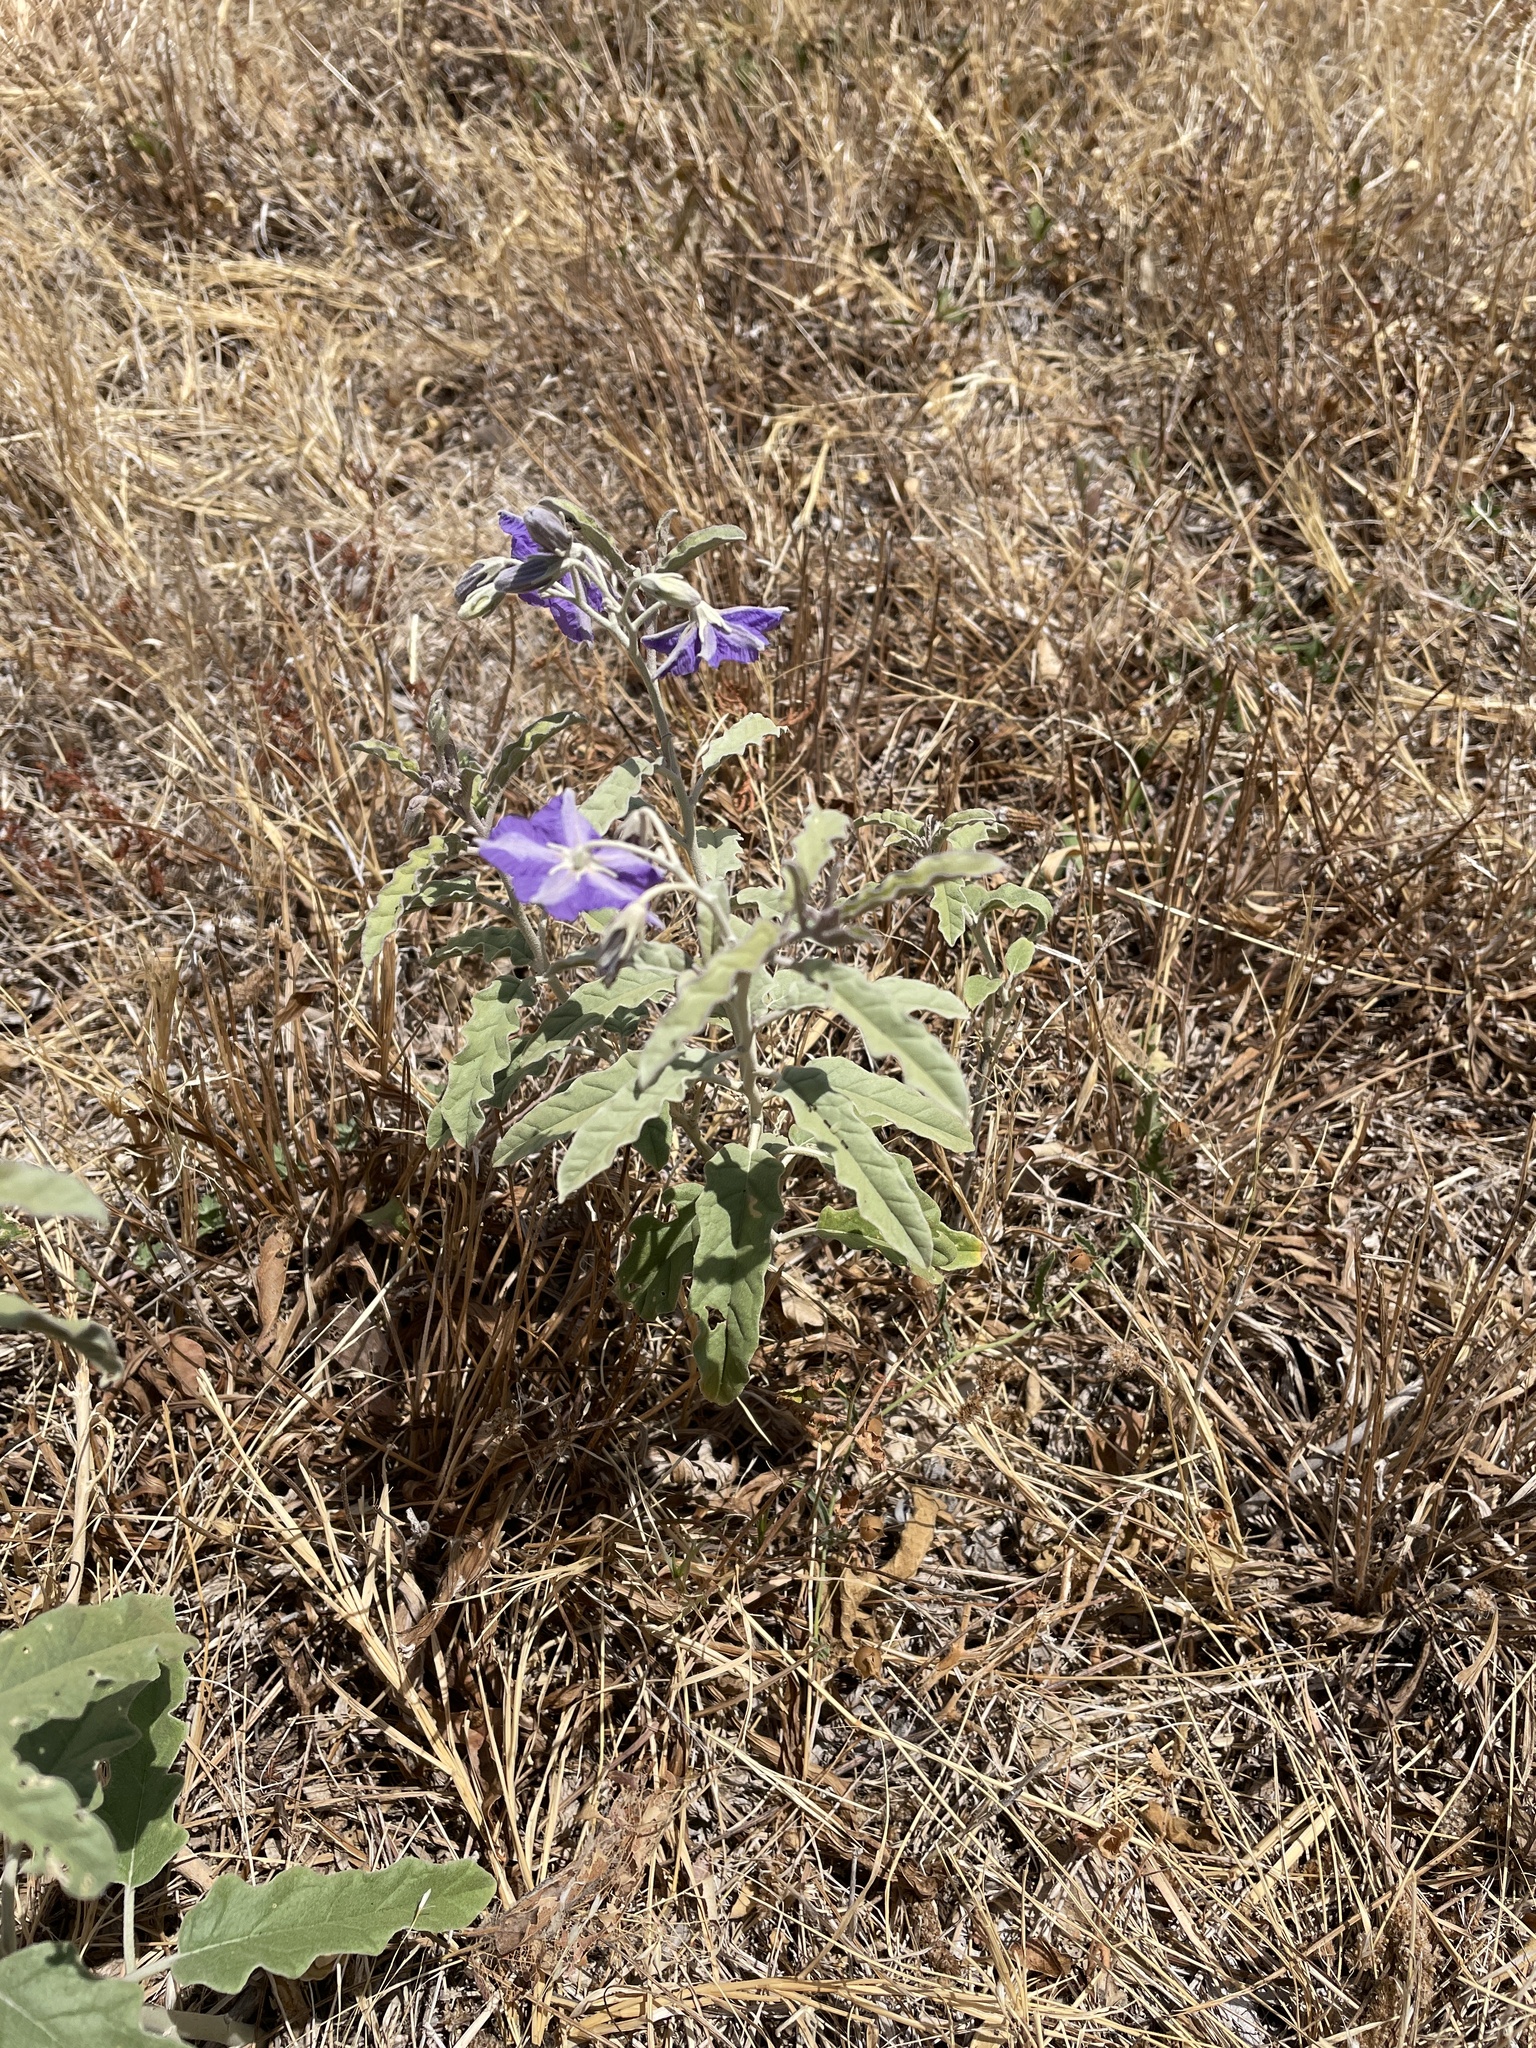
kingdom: Plantae
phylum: Tracheophyta
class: Magnoliopsida
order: Solanales
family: Solanaceae
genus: Solanum
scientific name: Solanum elaeagnifolium
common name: Silverleaf nightshade
